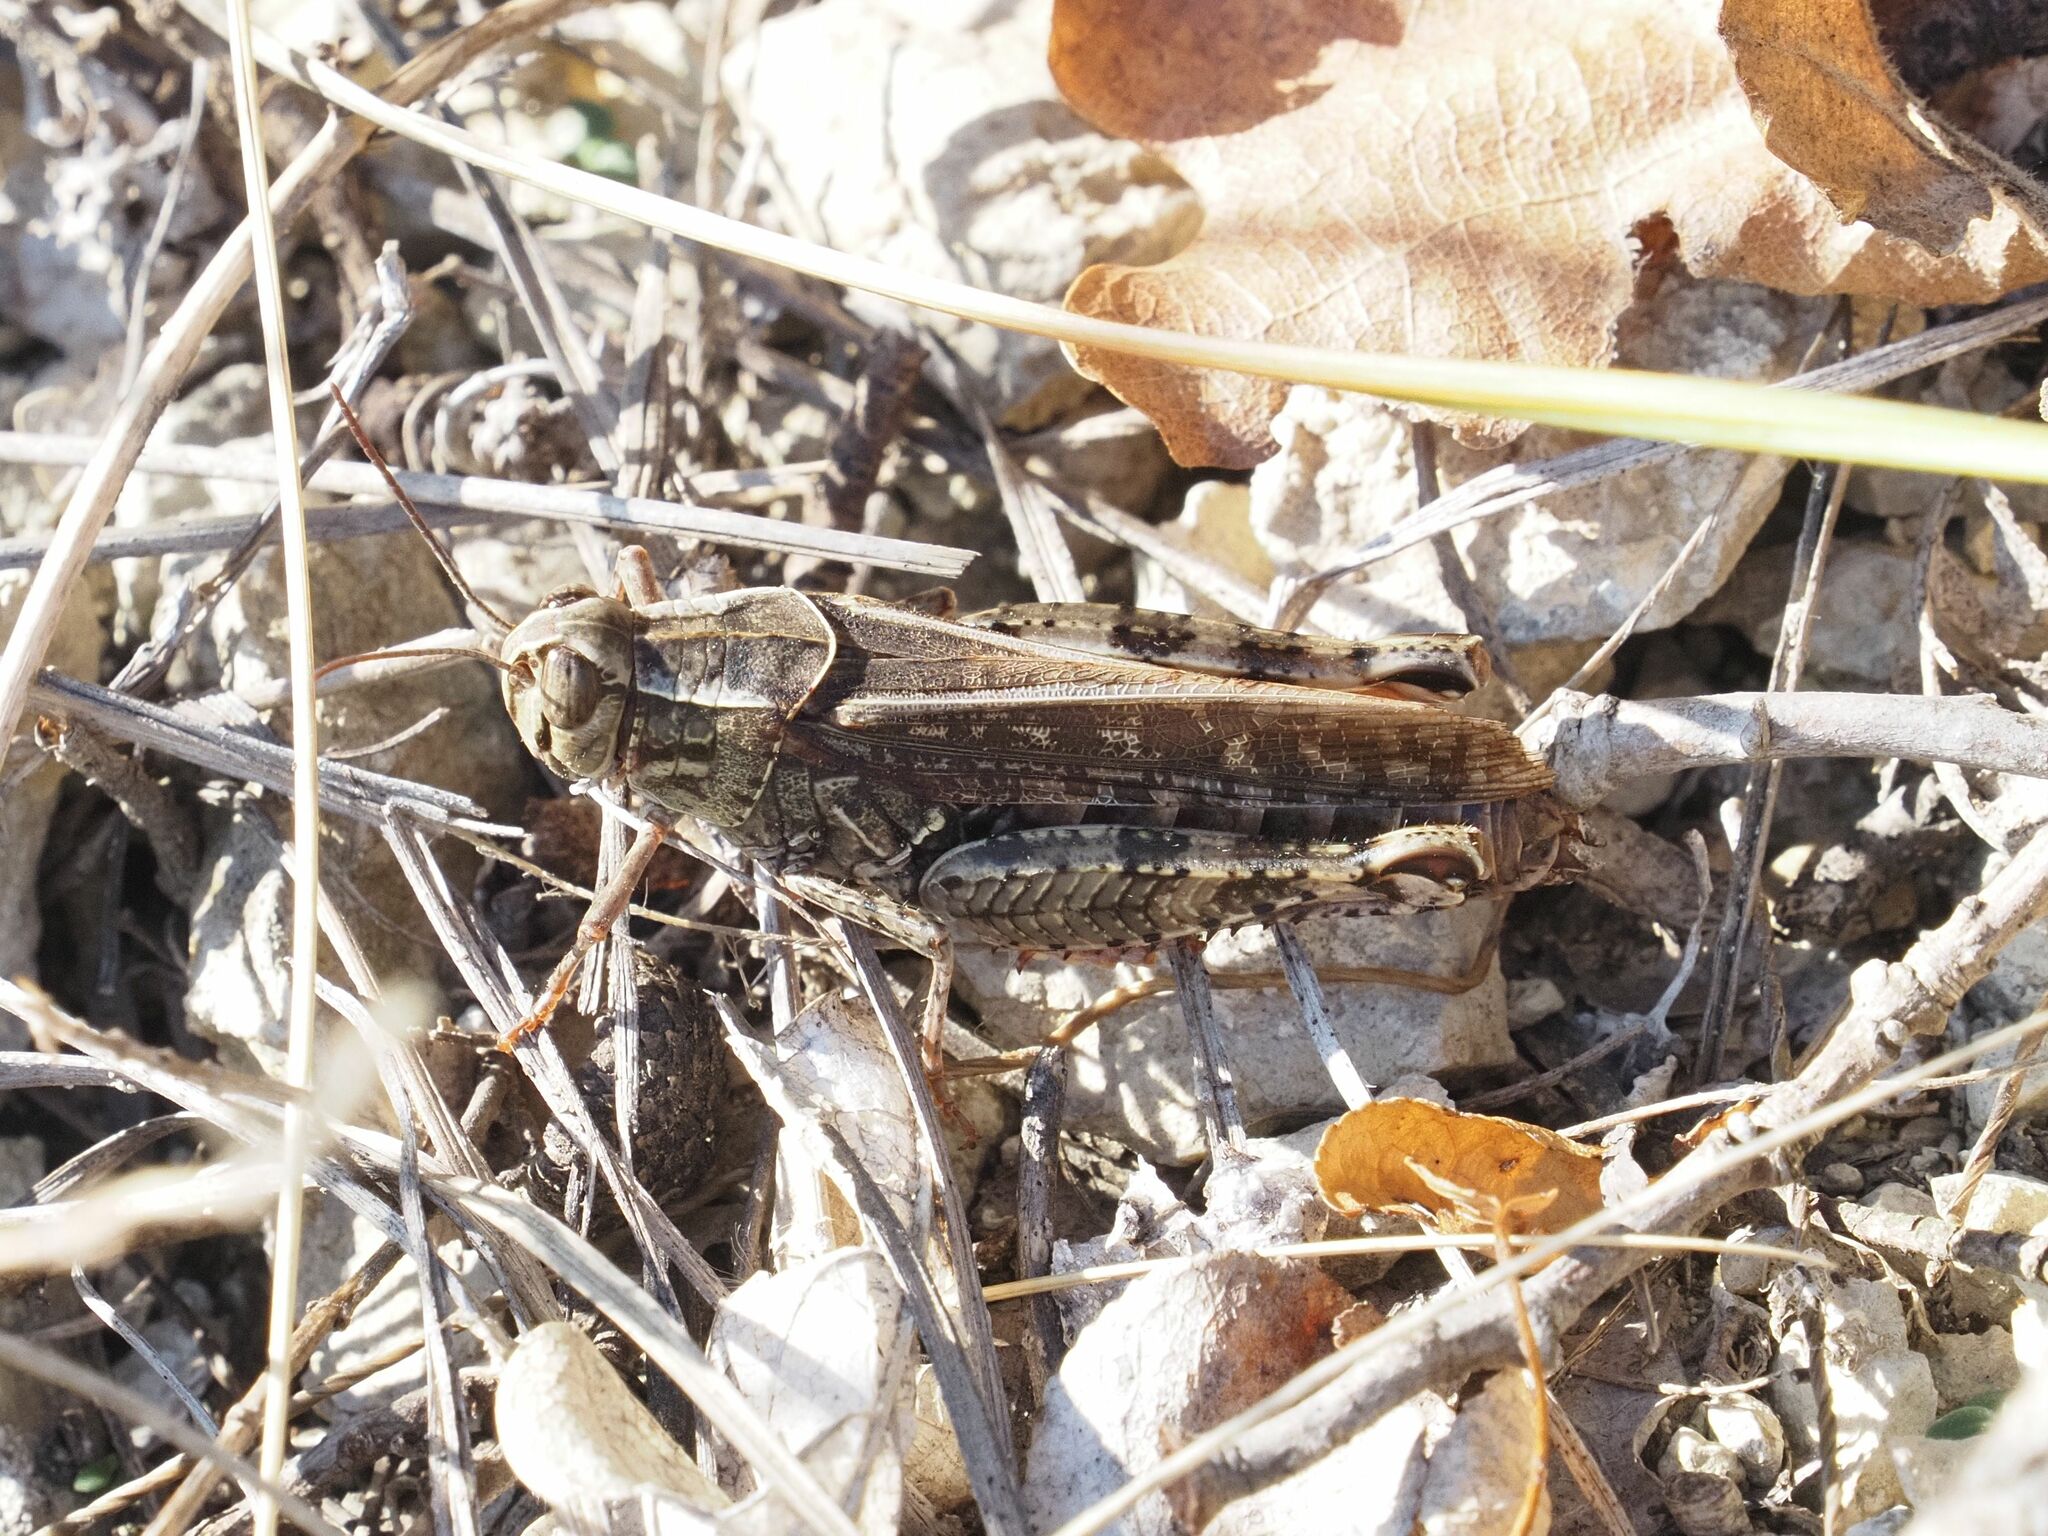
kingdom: Animalia
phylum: Arthropoda
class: Insecta
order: Orthoptera
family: Acrididae
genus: Calliptamus
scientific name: Calliptamus italicus
